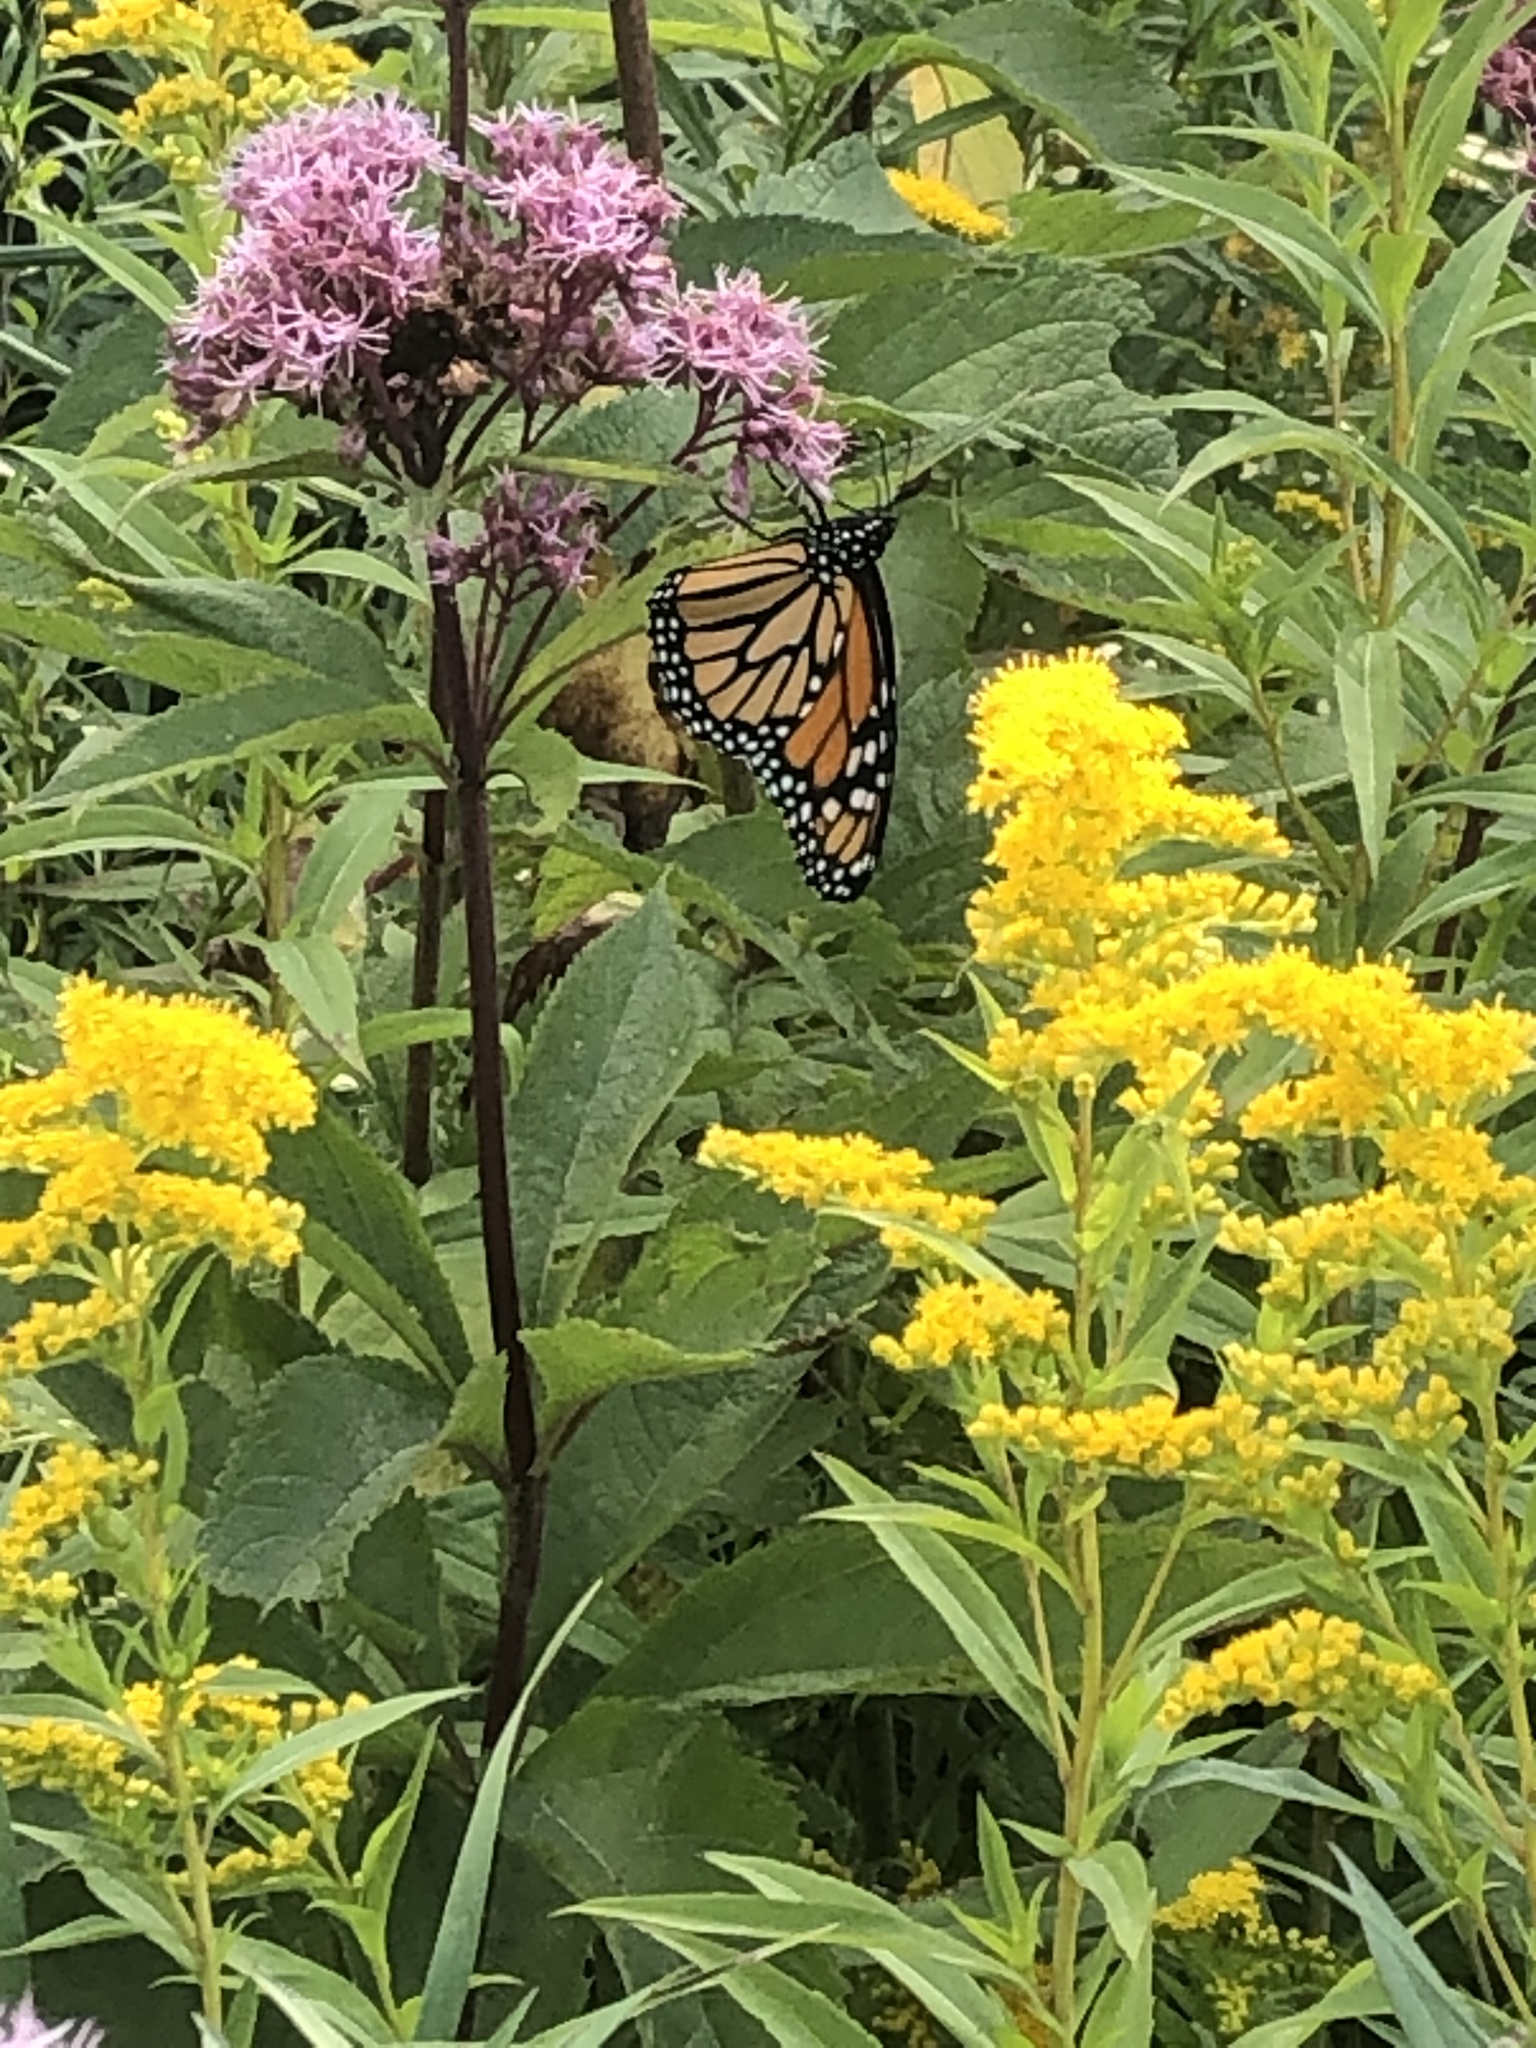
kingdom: Animalia
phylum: Arthropoda
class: Insecta
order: Lepidoptera
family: Nymphalidae
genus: Danaus
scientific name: Danaus plexippus
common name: Monarch
